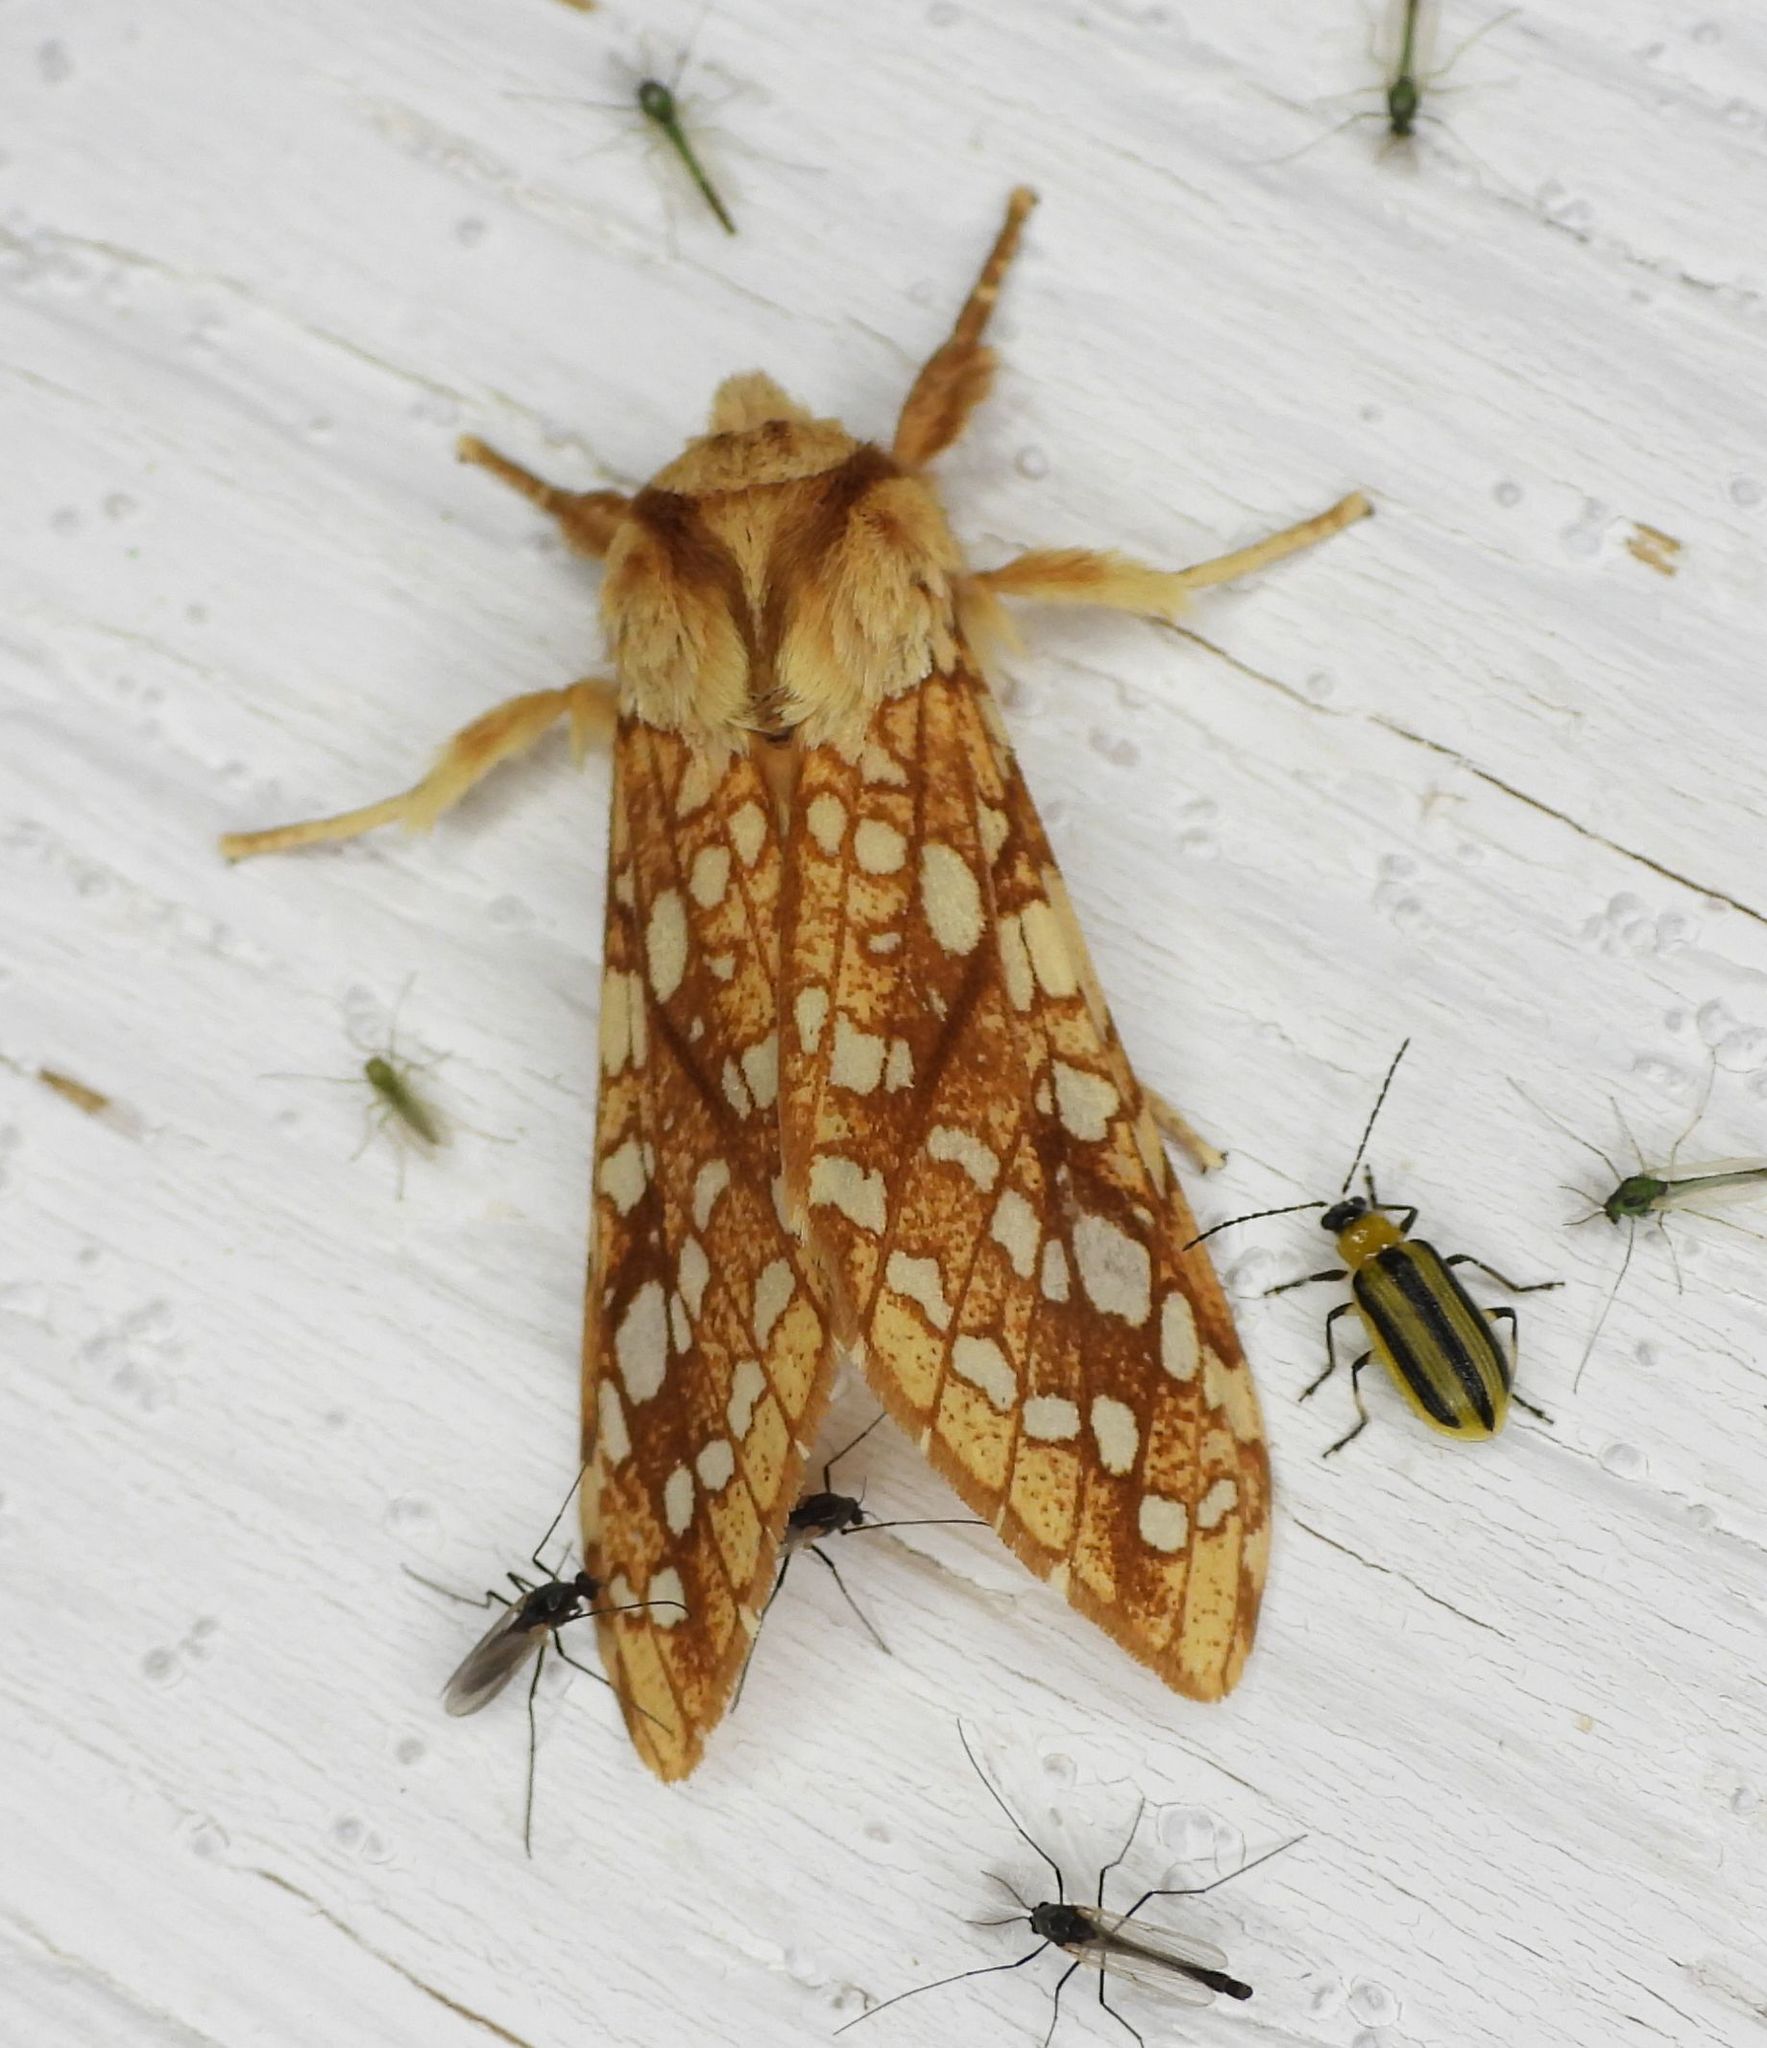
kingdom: Animalia
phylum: Arthropoda
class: Insecta
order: Lepidoptera
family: Erebidae
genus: Lophocampa
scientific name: Lophocampa caryae
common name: Hickory tussock moth
